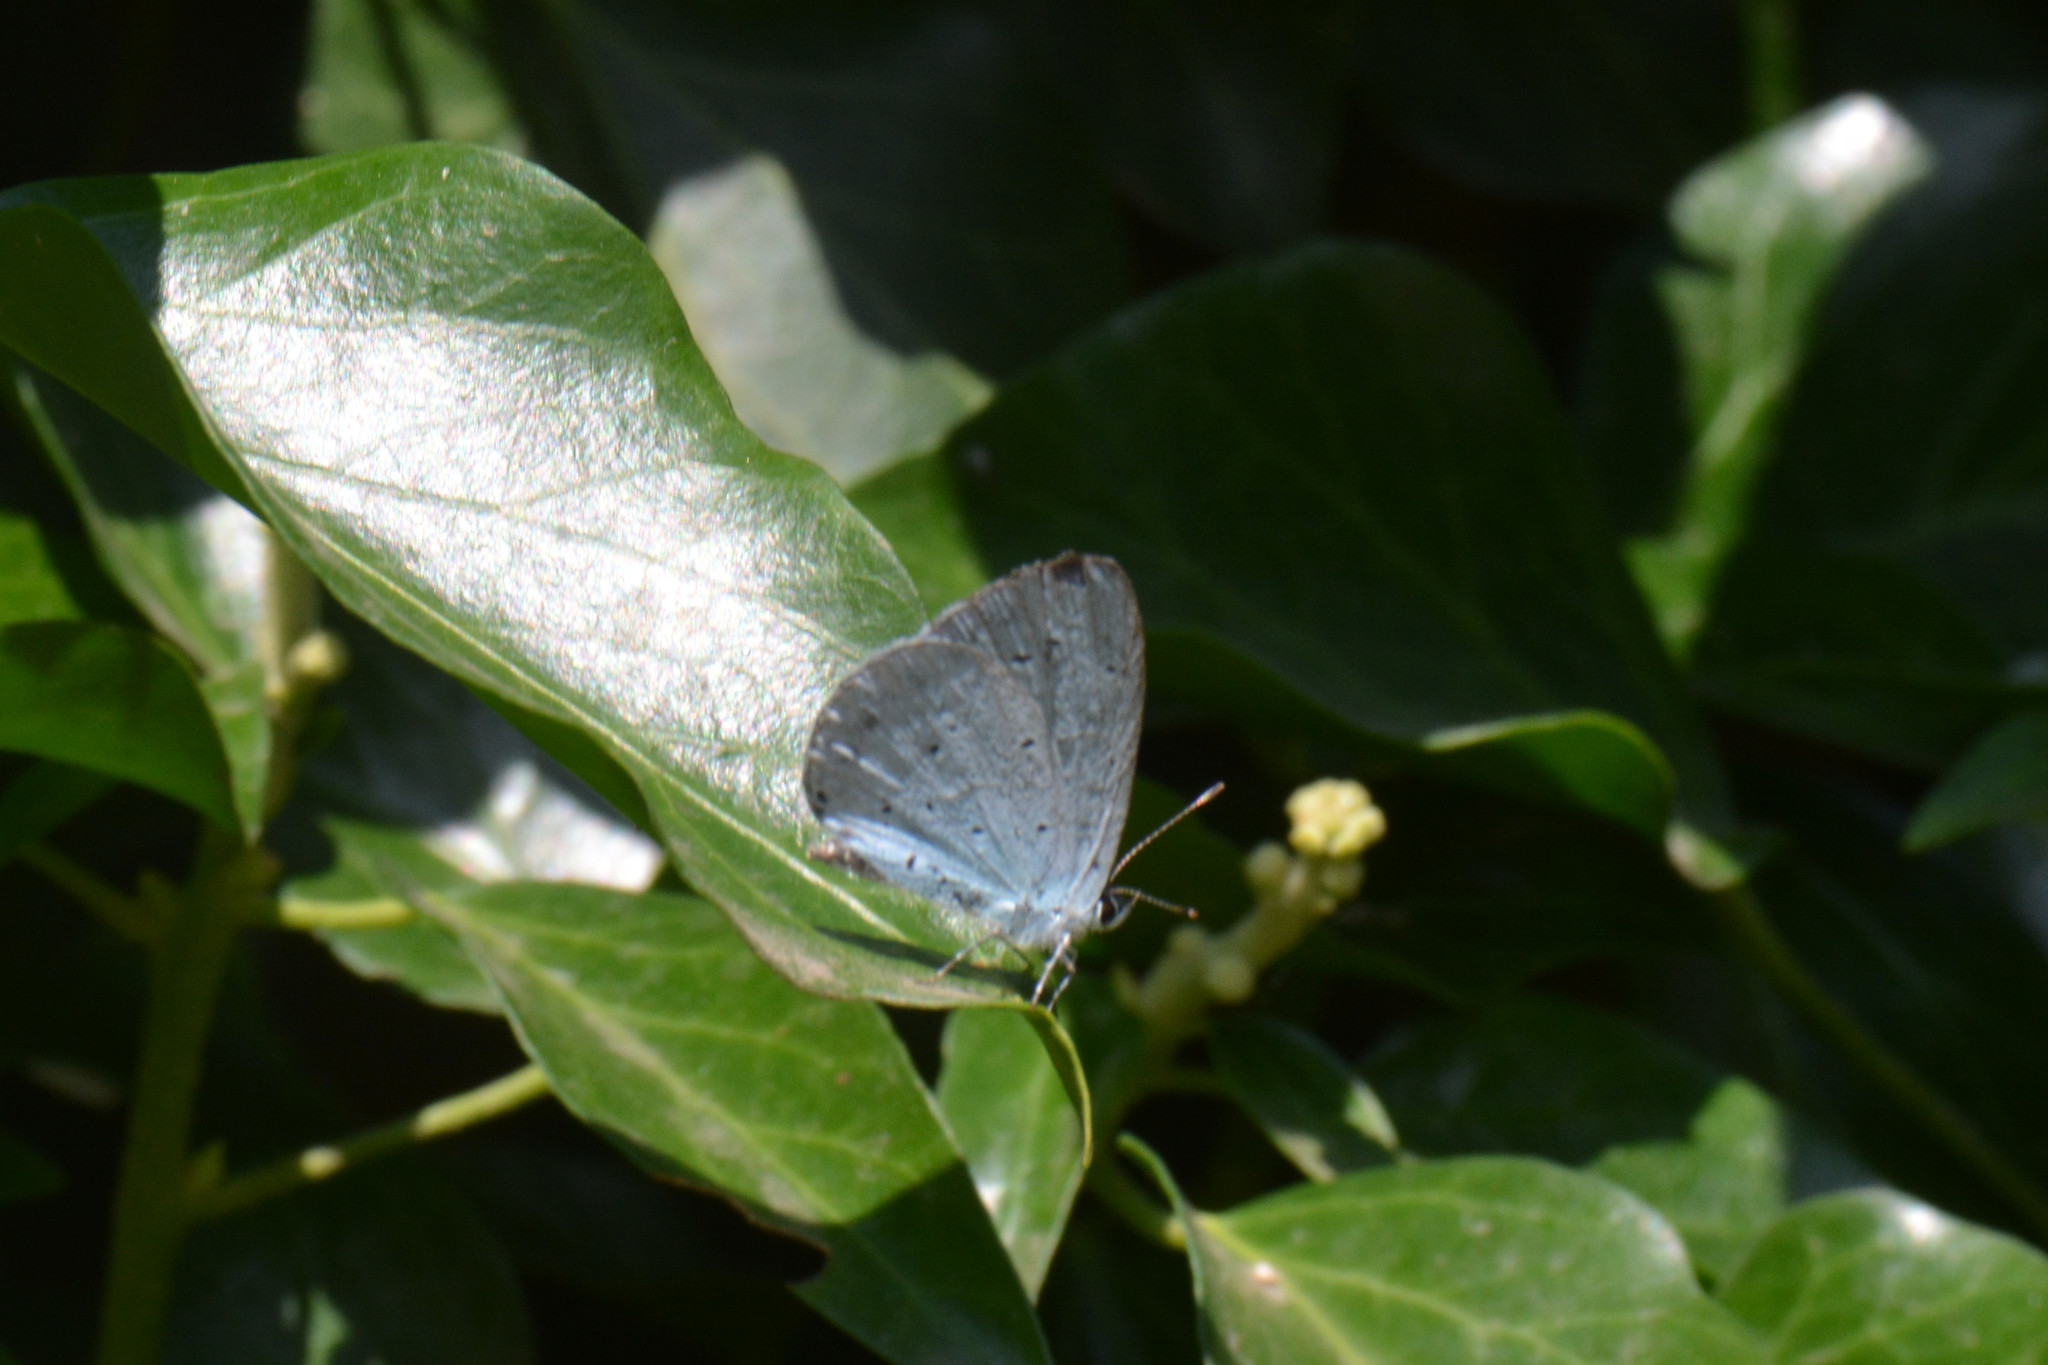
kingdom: Animalia
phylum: Arthropoda
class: Insecta
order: Lepidoptera
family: Lycaenidae
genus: Celastrina
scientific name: Celastrina argiolus
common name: Holly blue
